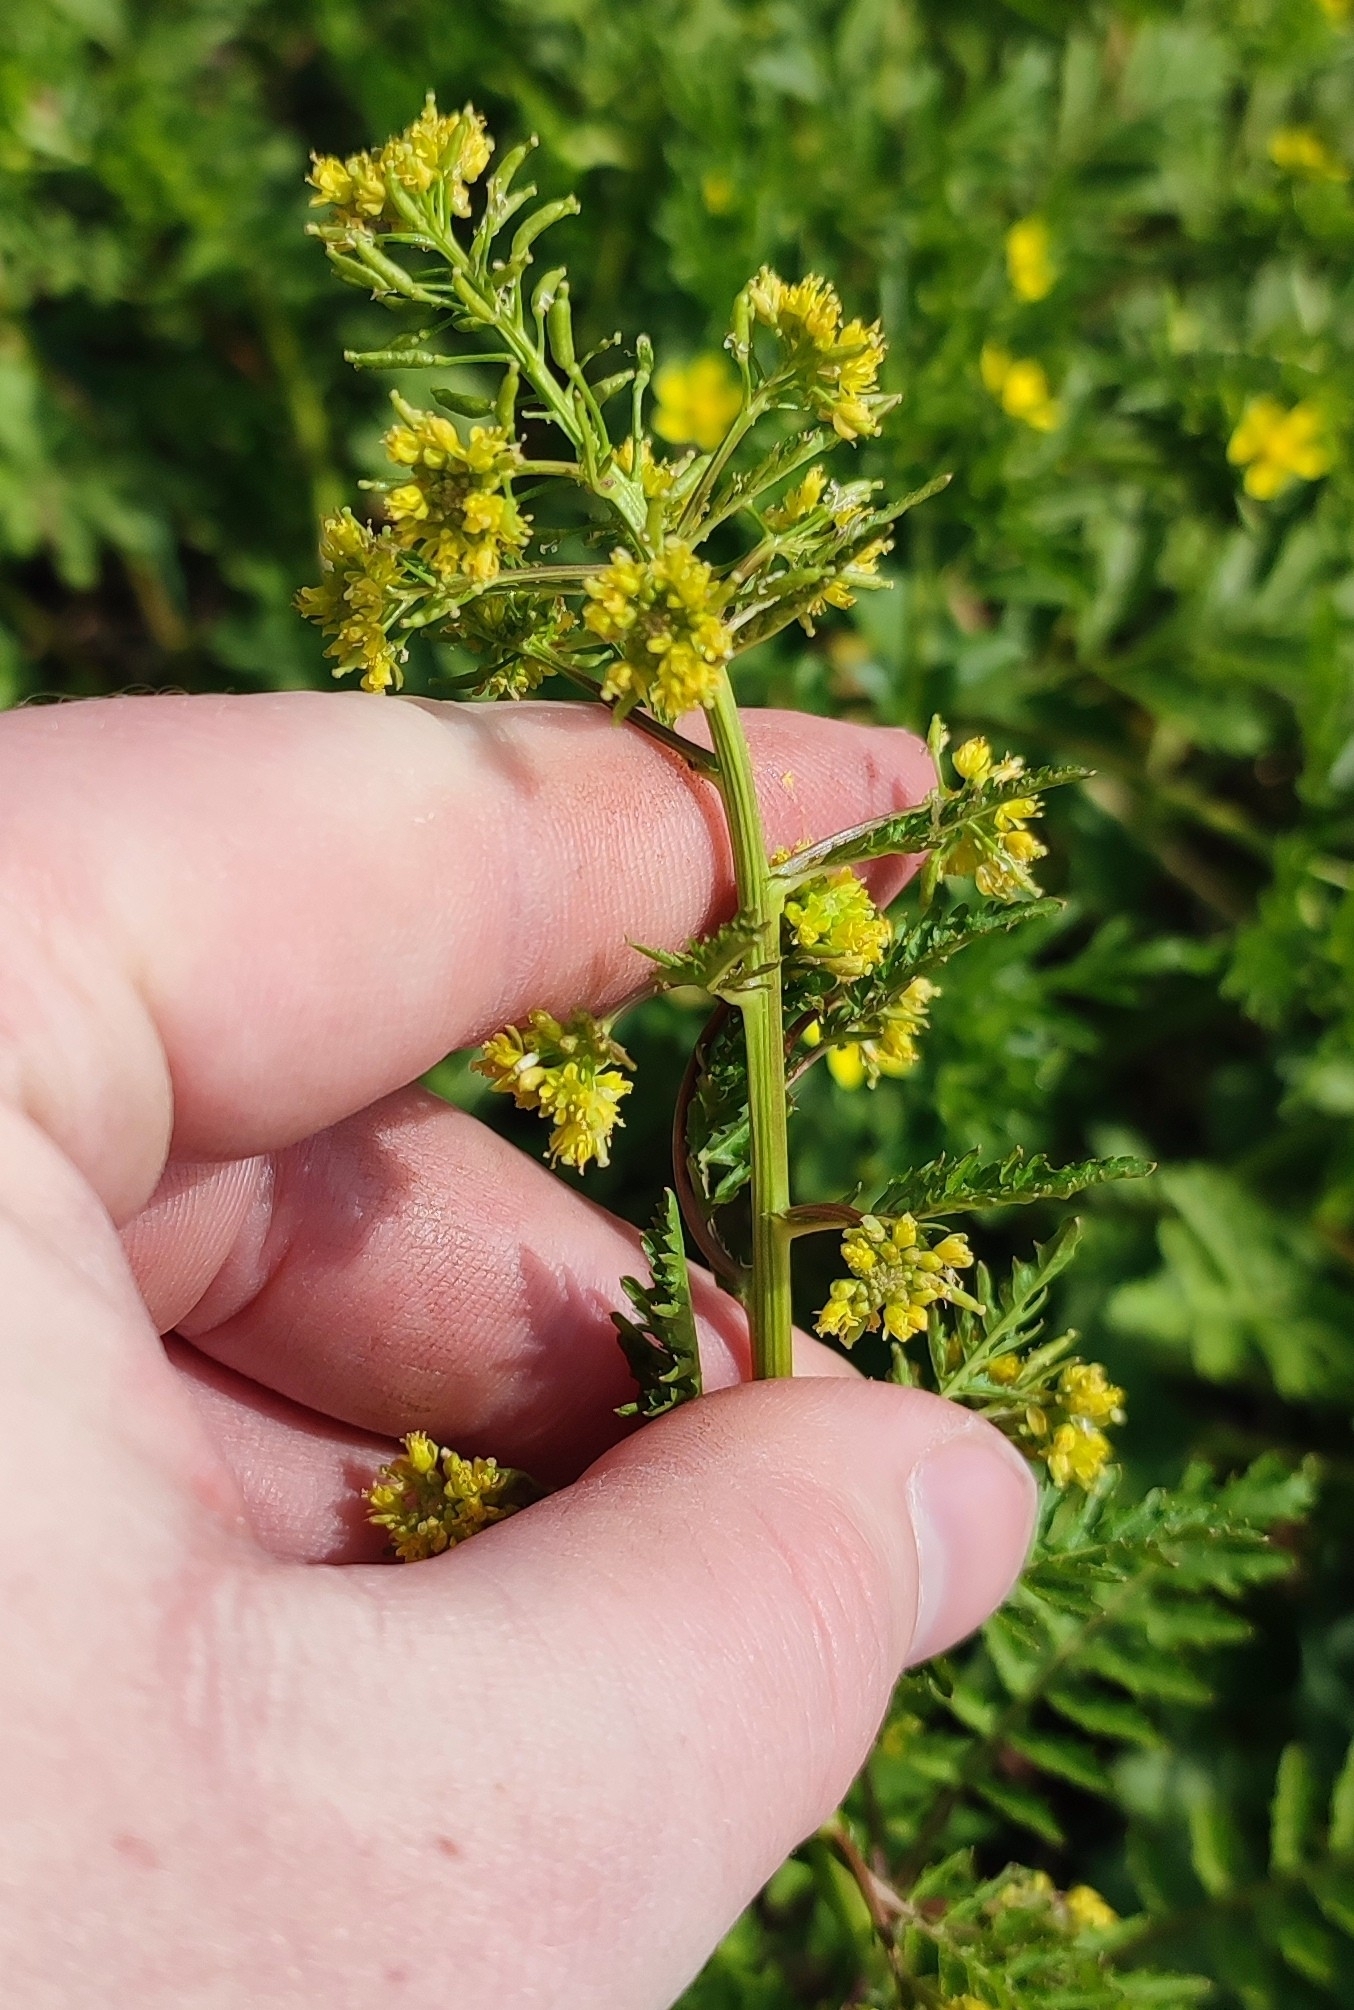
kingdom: Plantae
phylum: Tracheophyta
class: Magnoliopsida
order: Brassicales
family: Brassicaceae
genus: Rorippa
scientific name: Rorippa palustris
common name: Marsh yellow-cress
